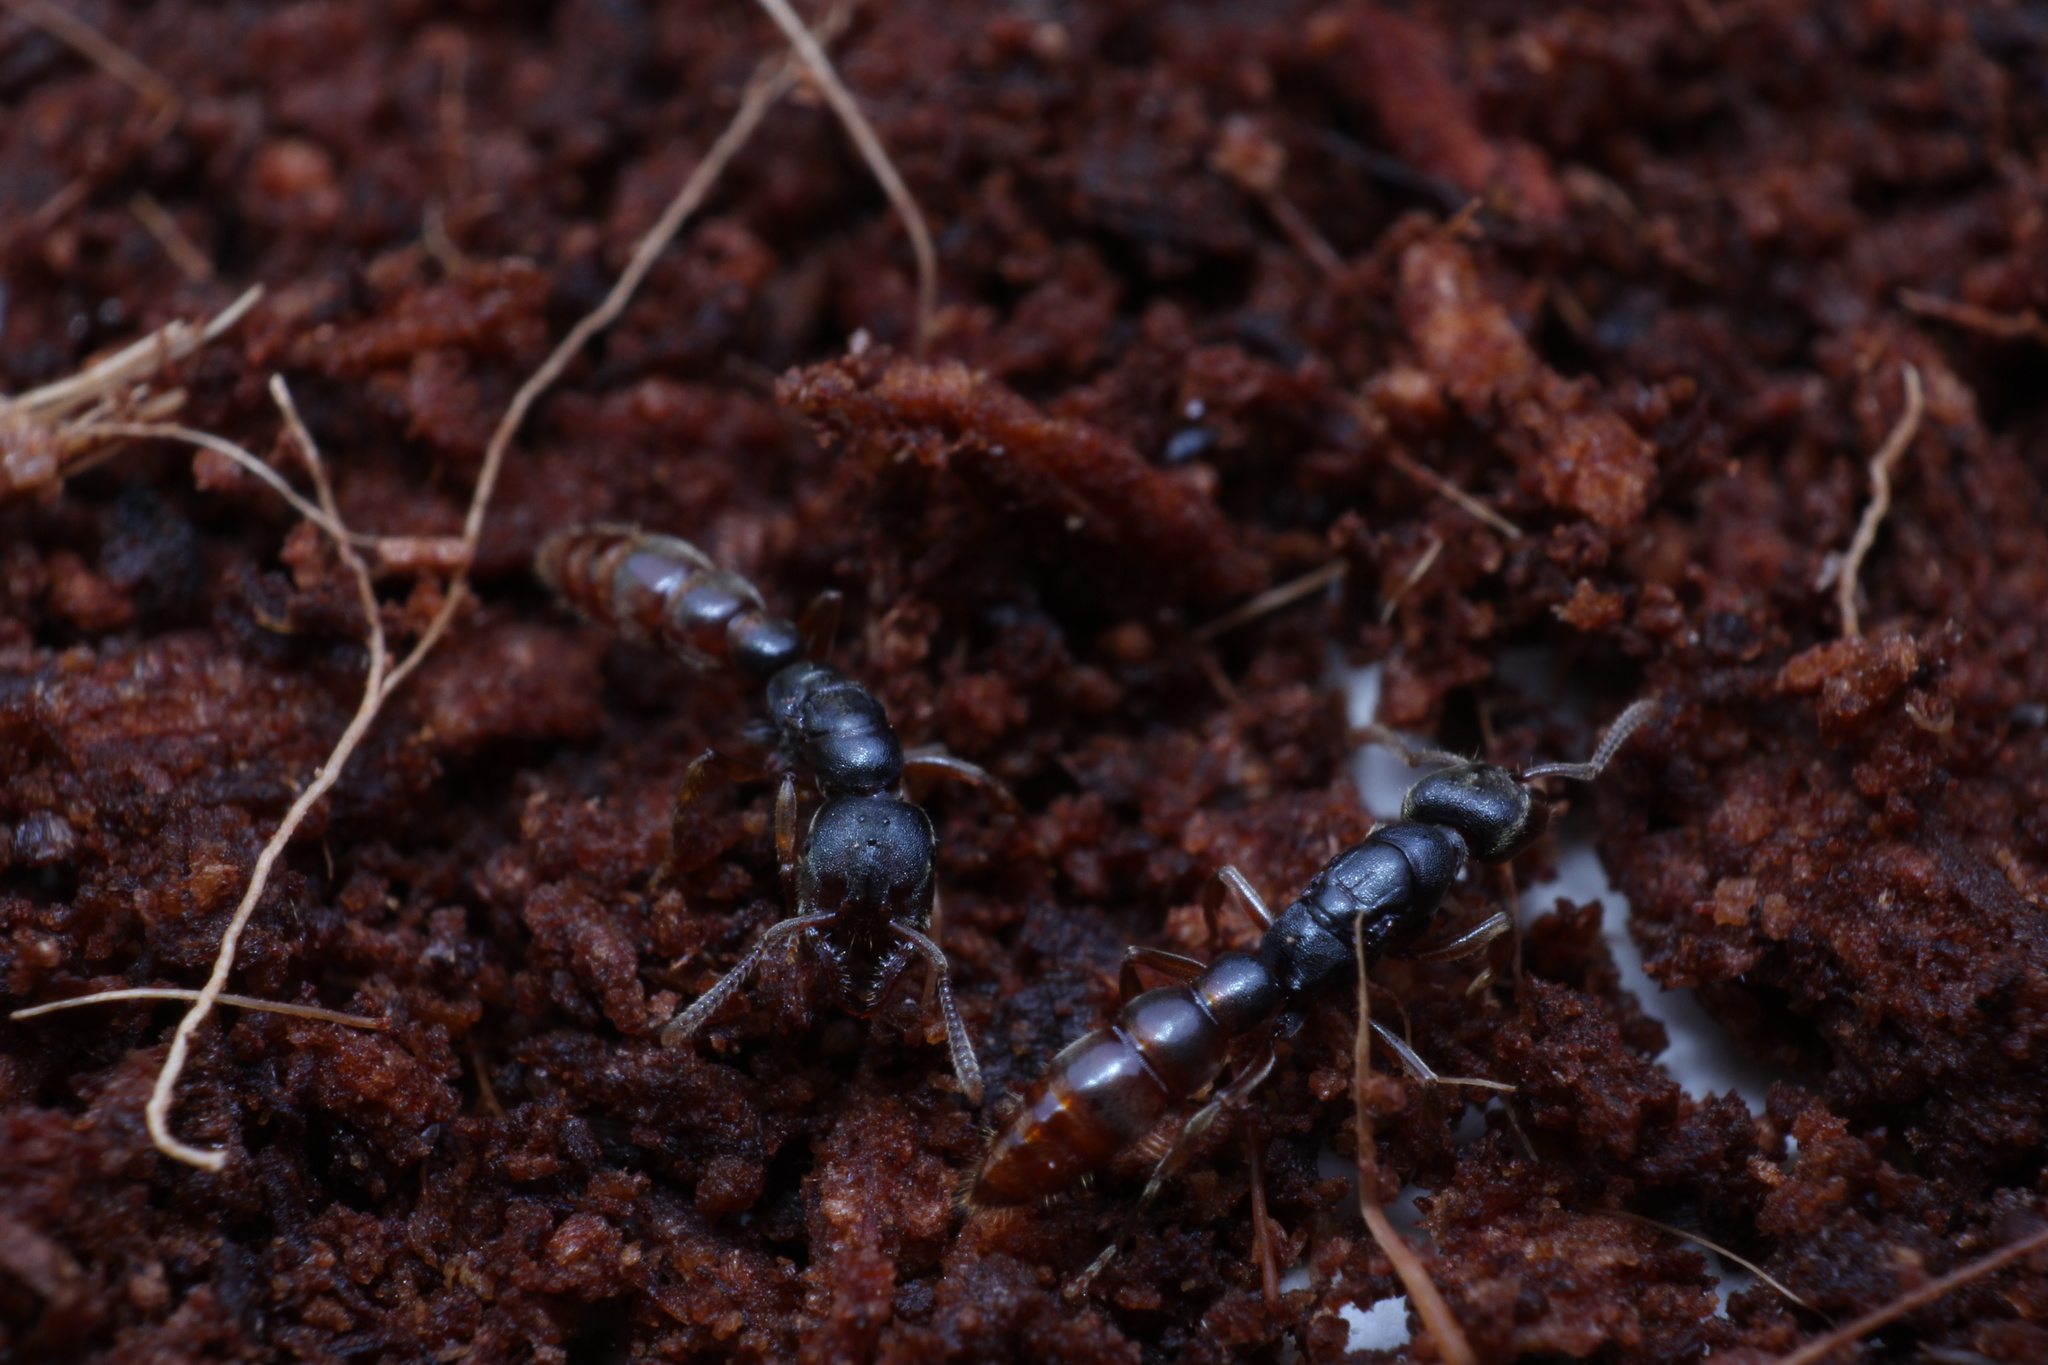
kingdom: Animalia
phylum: Arthropoda
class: Insecta
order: Hymenoptera
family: Formicidae
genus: Stigmatomma
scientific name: Stigmatomma pallipes
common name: Vampire ant
